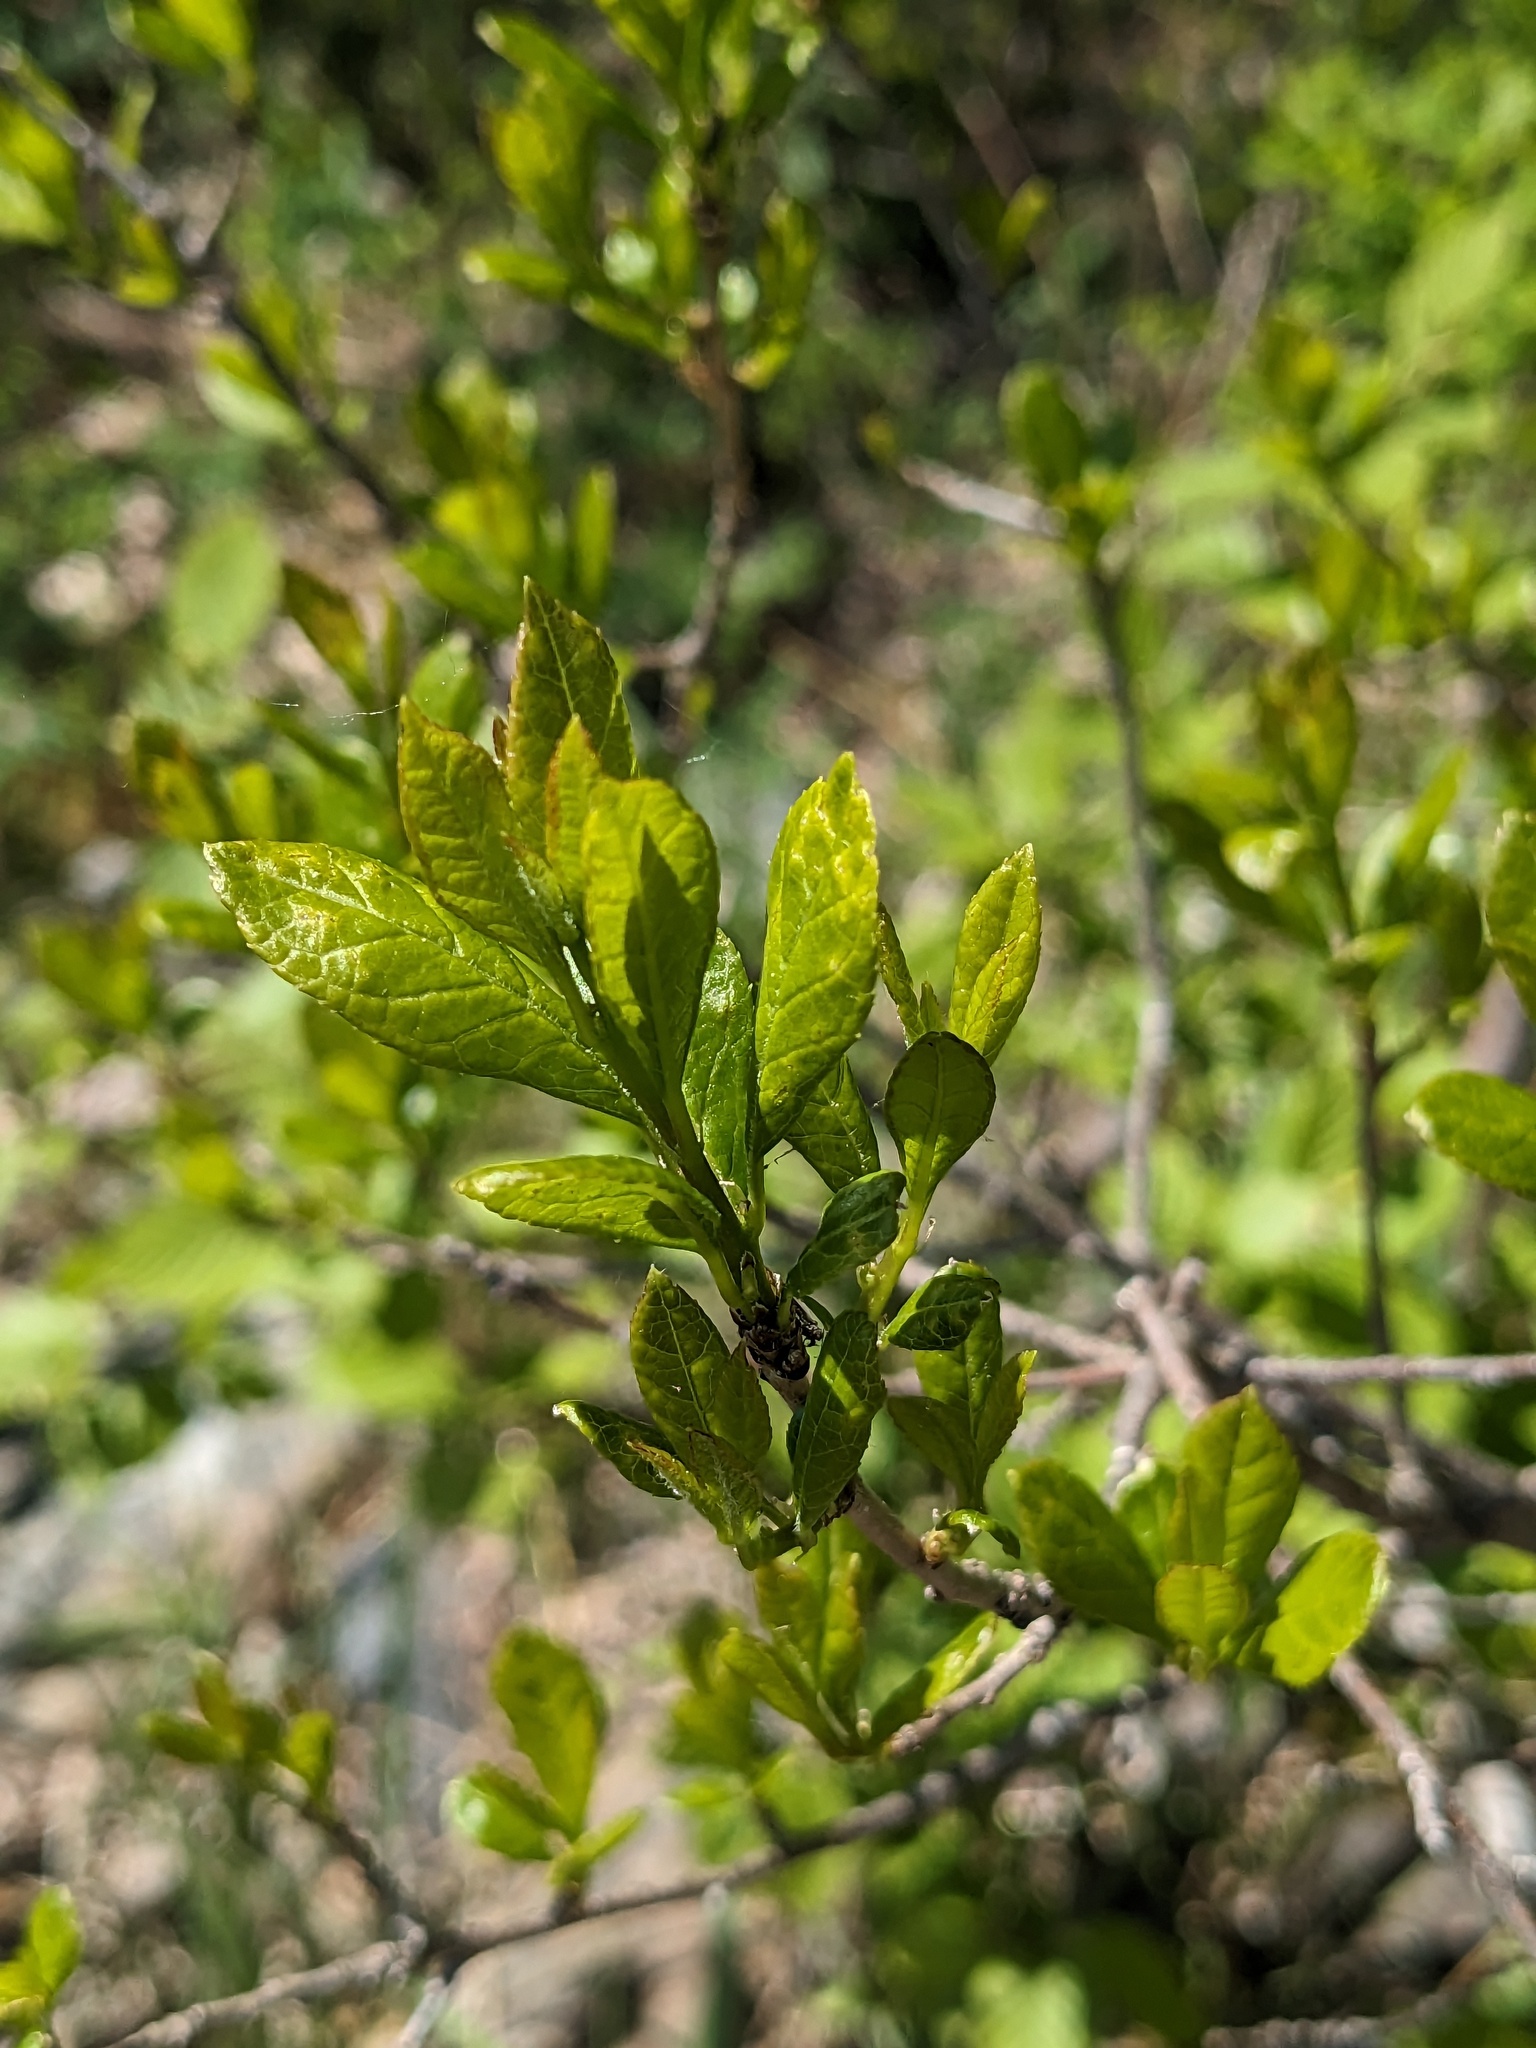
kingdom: Plantae
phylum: Tracheophyta
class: Magnoliopsida
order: Aquifoliales
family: Aquifoliaceae
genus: Ilex
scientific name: Ilex verticillata
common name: Virginia winterberry
